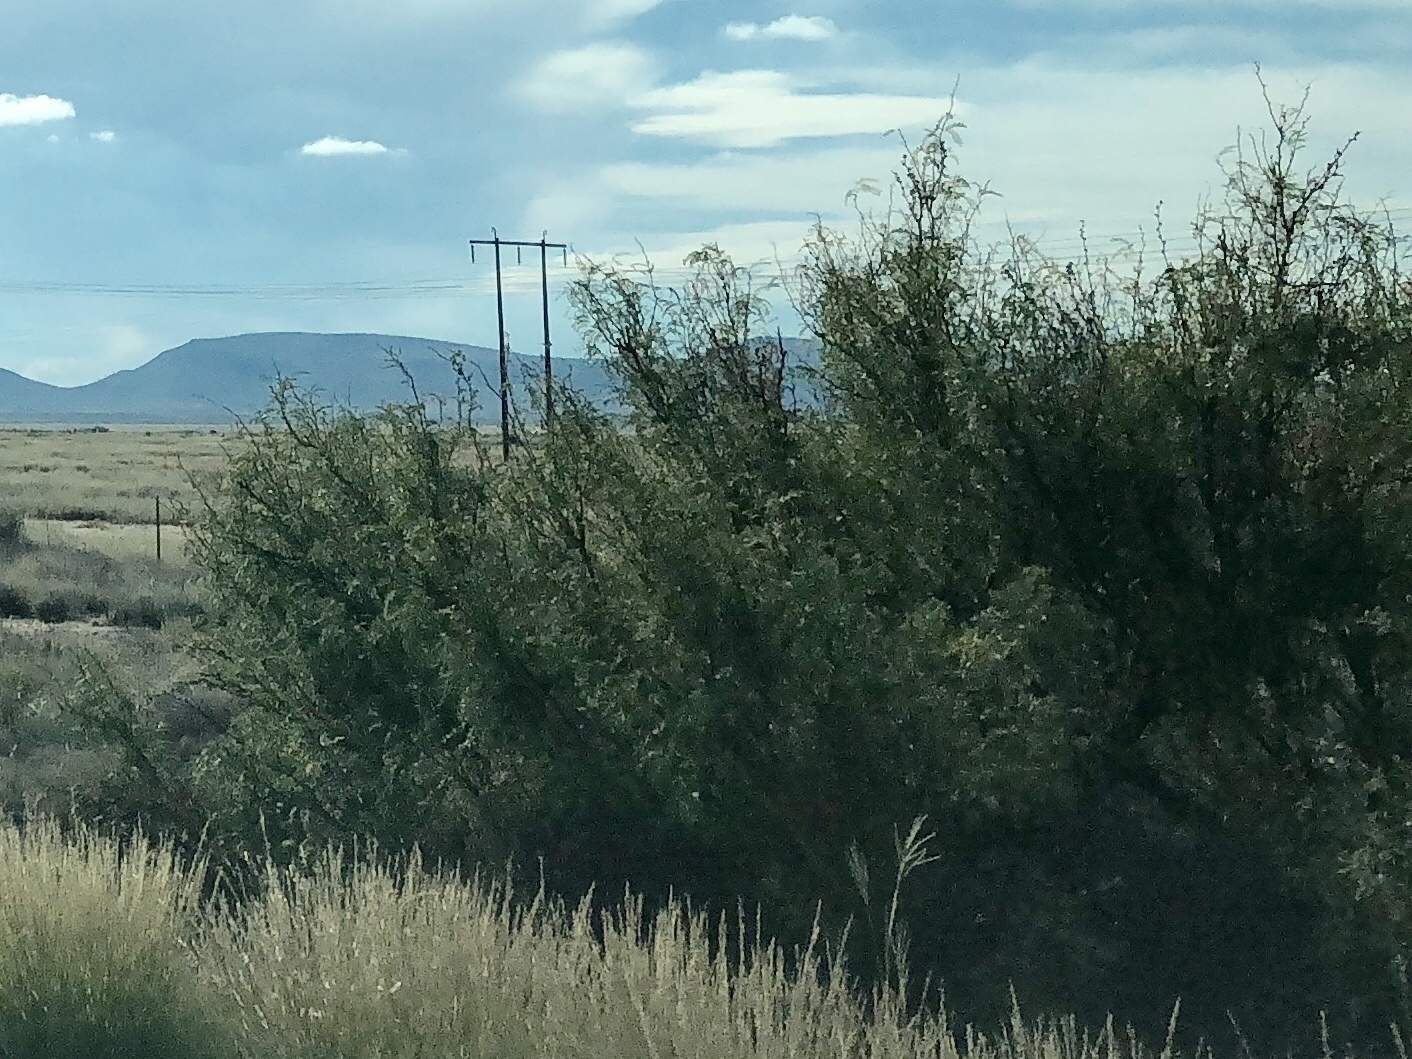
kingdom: Plantae
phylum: Tracheophyta
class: Magnoliopsida
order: Fabales
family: Fabaceae
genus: Prosopis
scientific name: Prosopis glandulosa
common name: Honey mesquite
